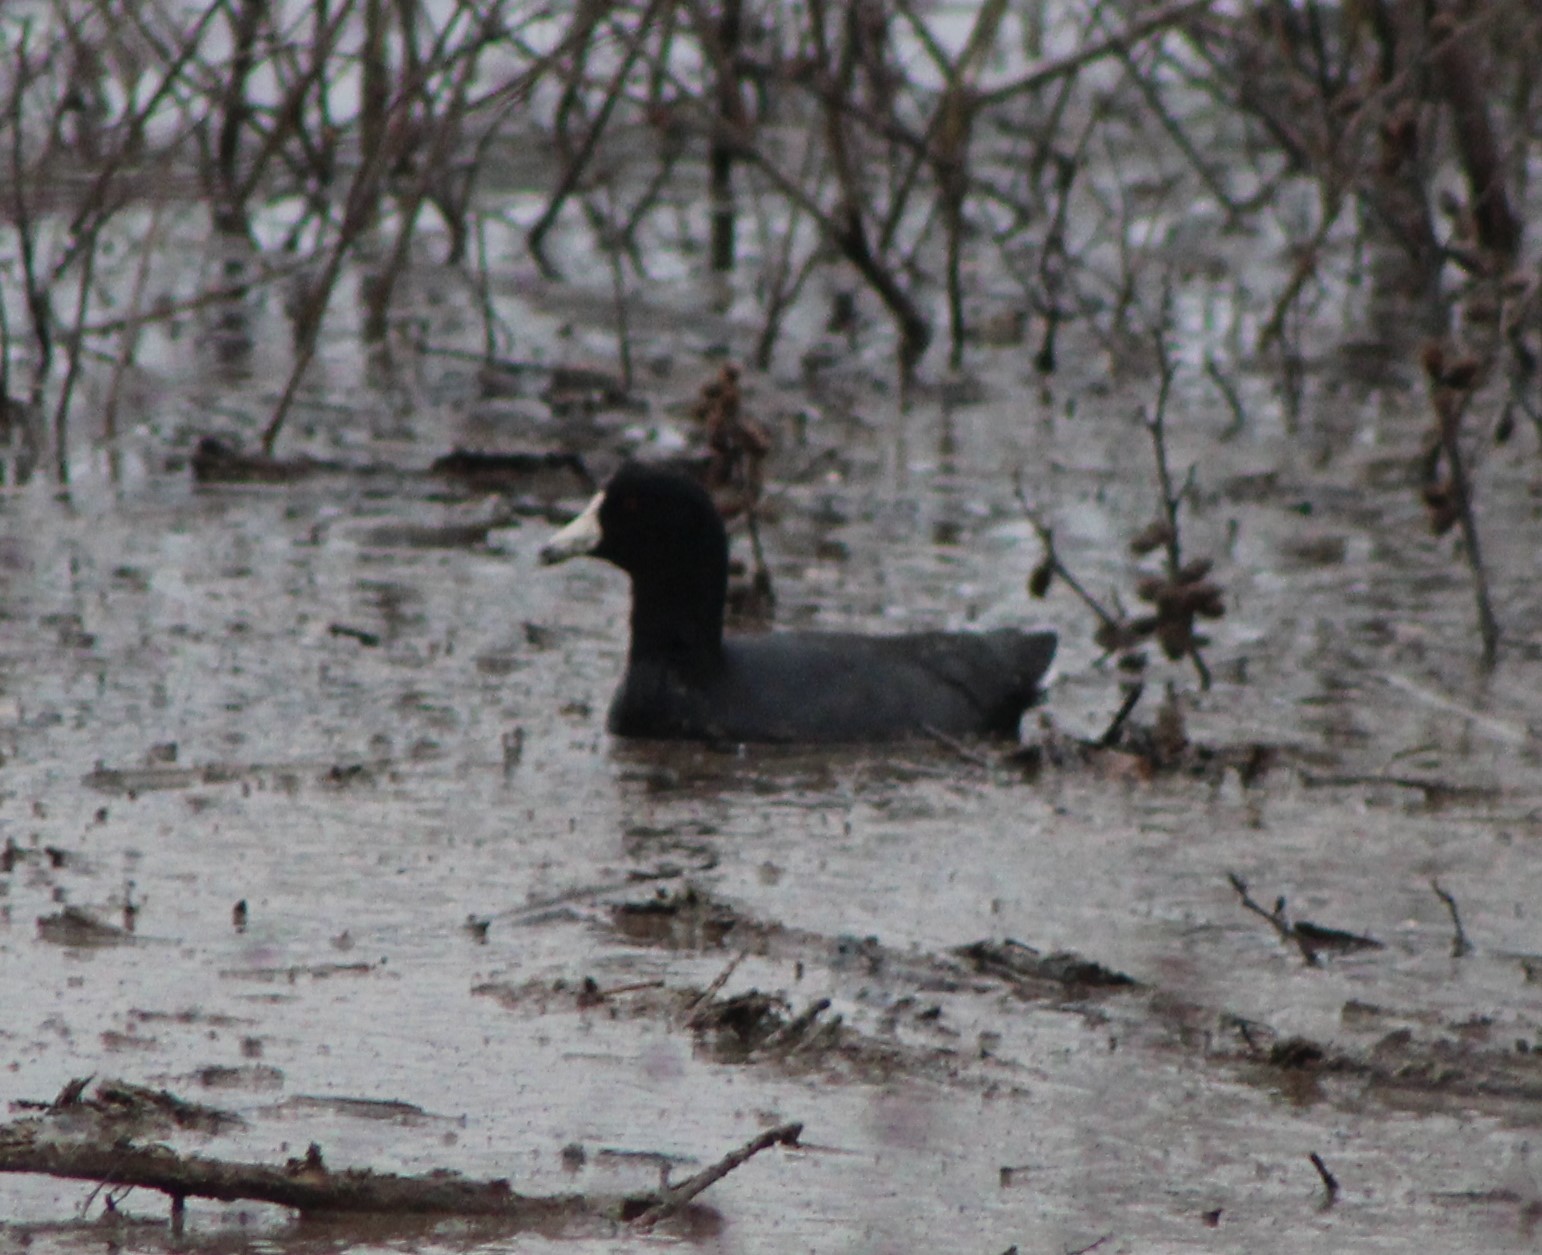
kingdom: Animalia
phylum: Chordata
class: Aves
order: Gruiformes
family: Rallidae
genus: Fulica
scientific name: Fulica americana
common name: American coot
